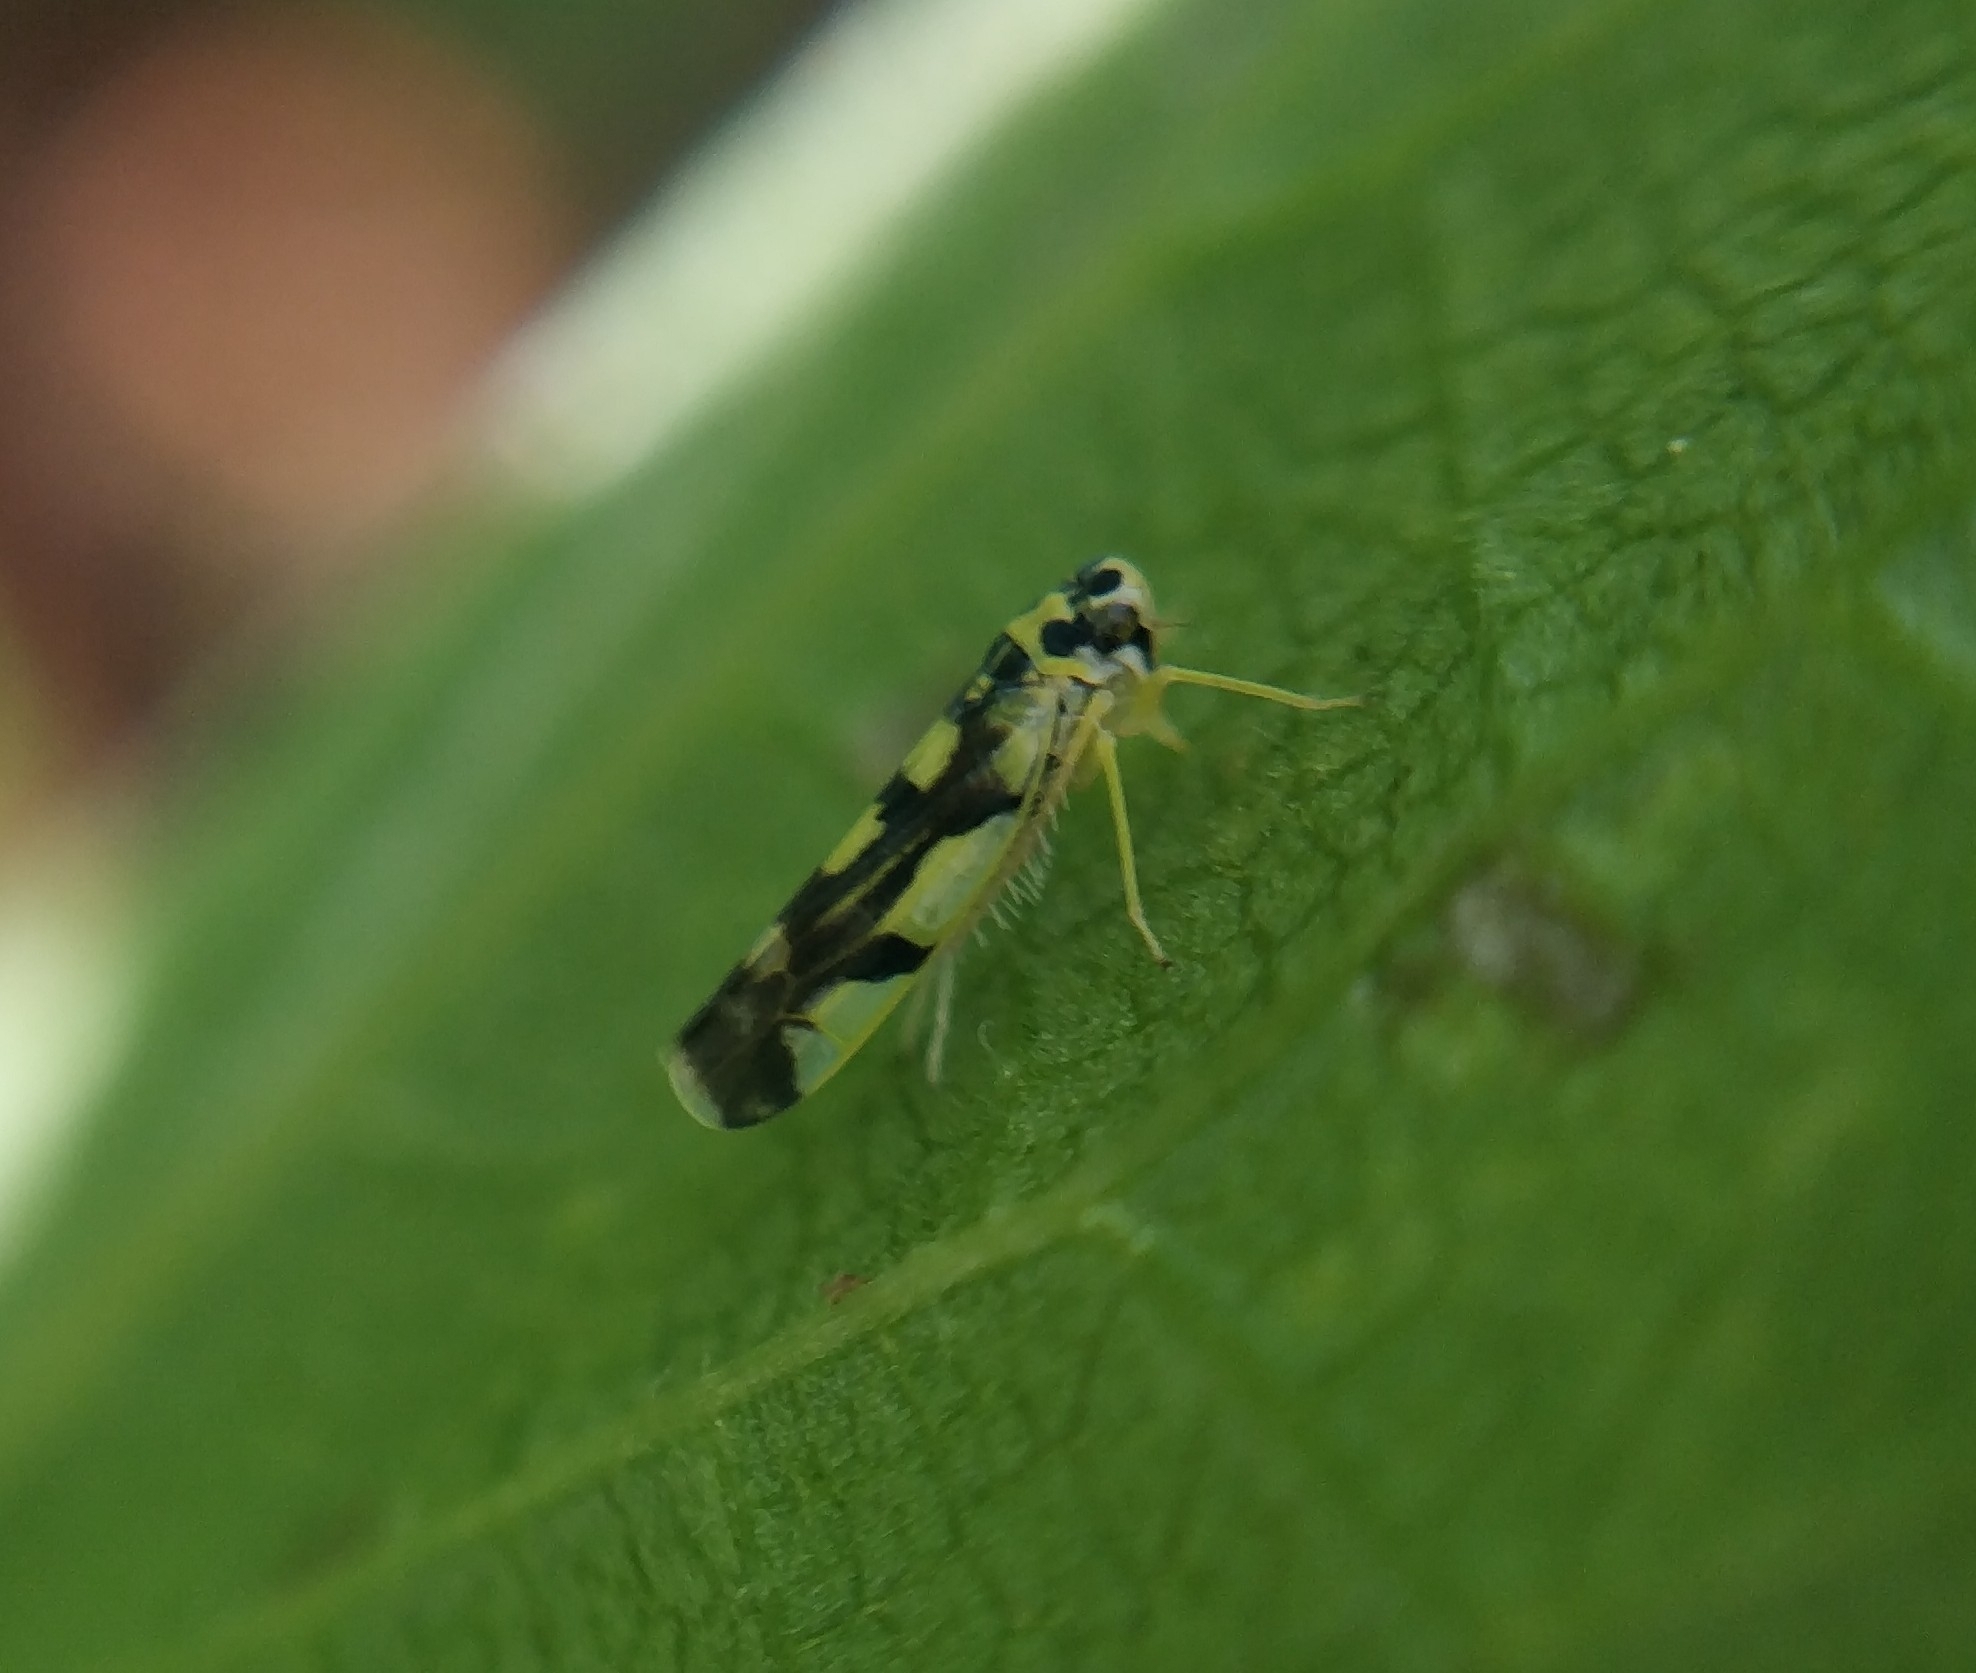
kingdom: Animalia
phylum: Arthropoda
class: Insecta
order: Hemiptera
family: Cicadellidae
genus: Eupteryx
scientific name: Eupteryx aurata
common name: Leafhopper
